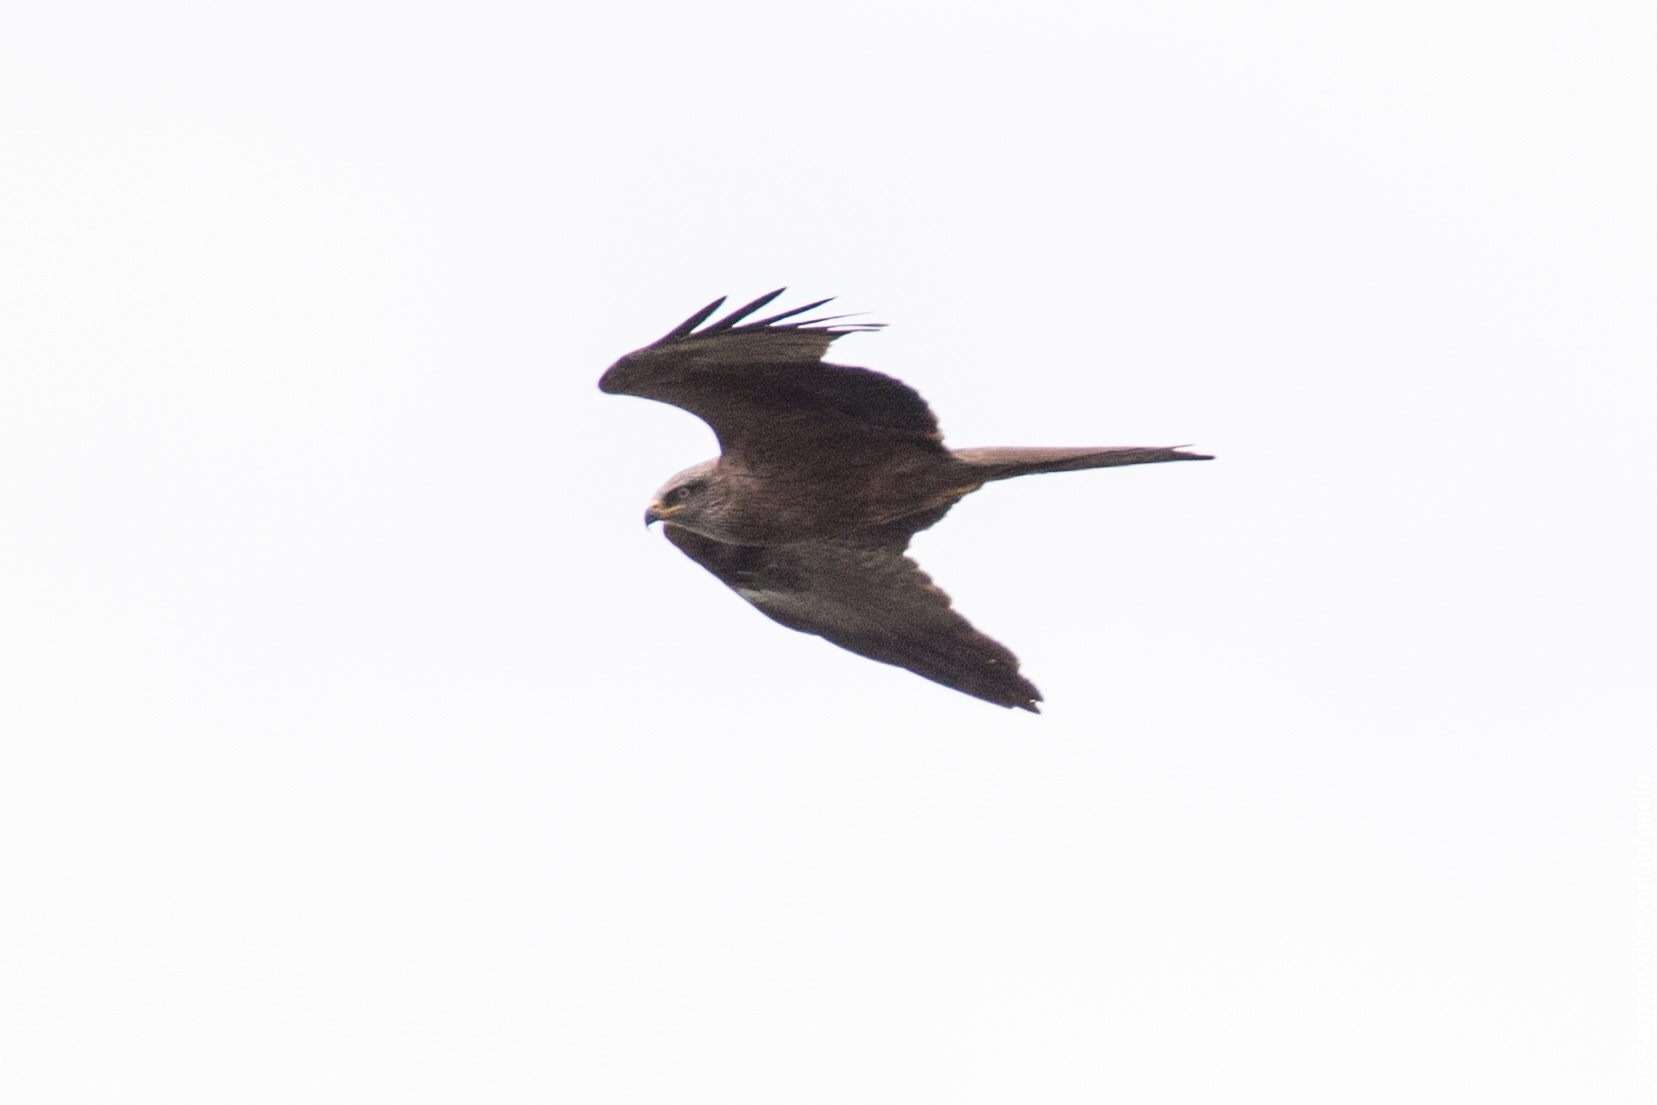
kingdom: Animalia
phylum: Chordata
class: Aves
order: Accipitriformes
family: Accipitridae
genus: Milvus
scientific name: Milvus migrans
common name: Black kite
